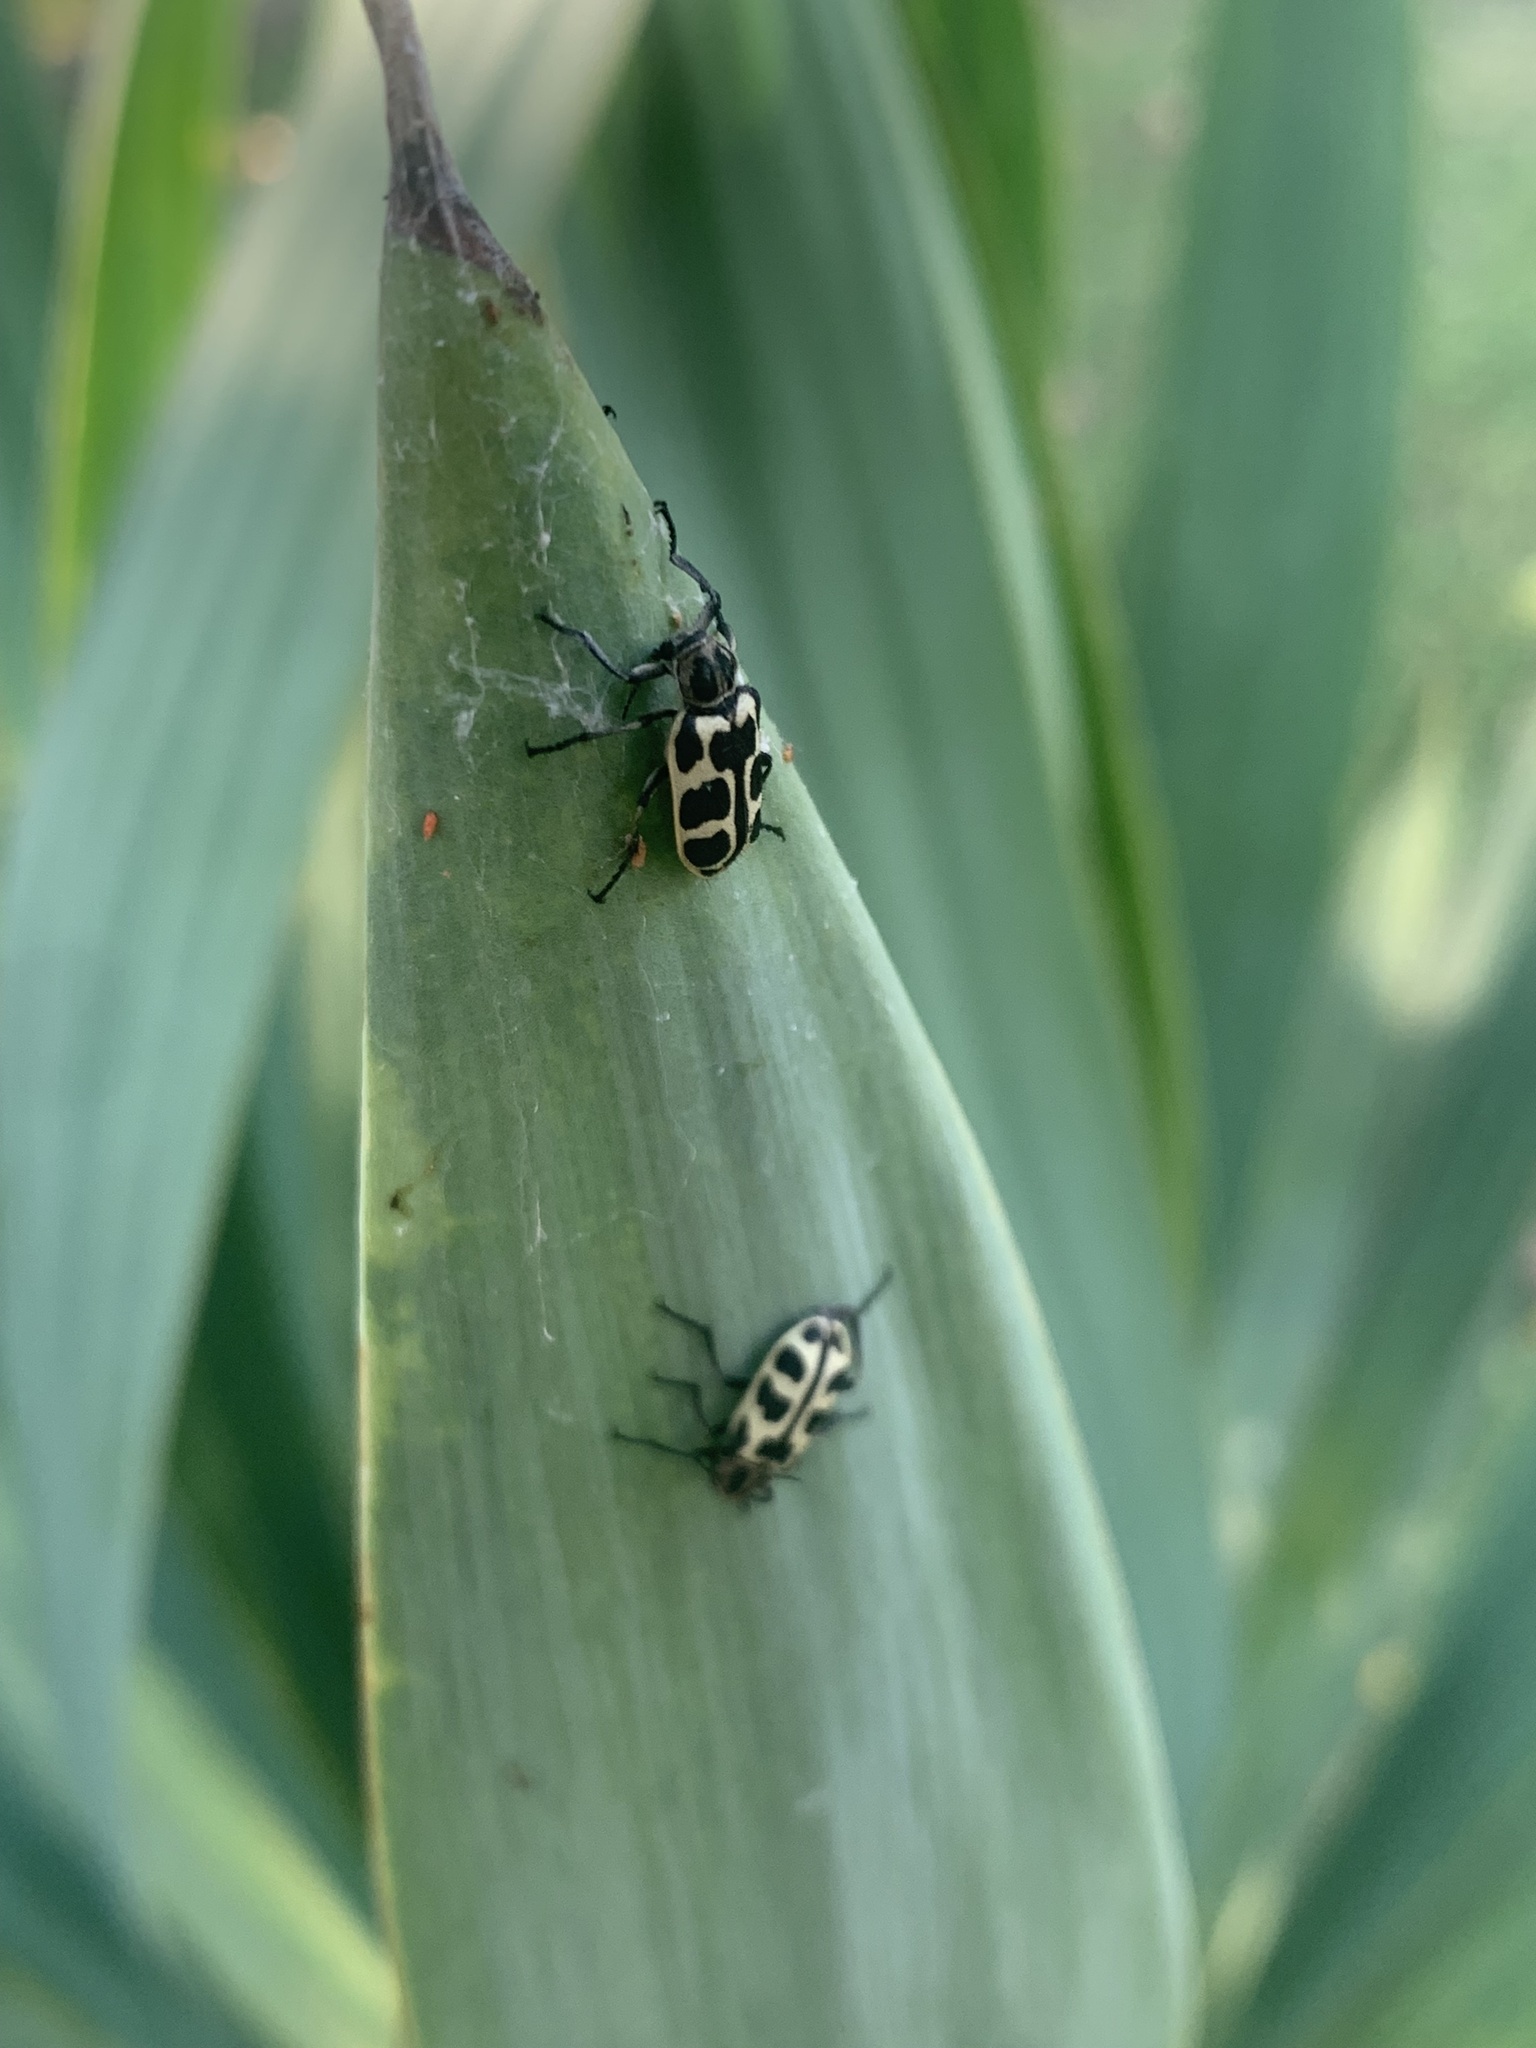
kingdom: Animalia
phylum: Arthropoda
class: Insecta
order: Coleoptera
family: Melyridae
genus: Astylus
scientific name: Astylus atromaculatus
